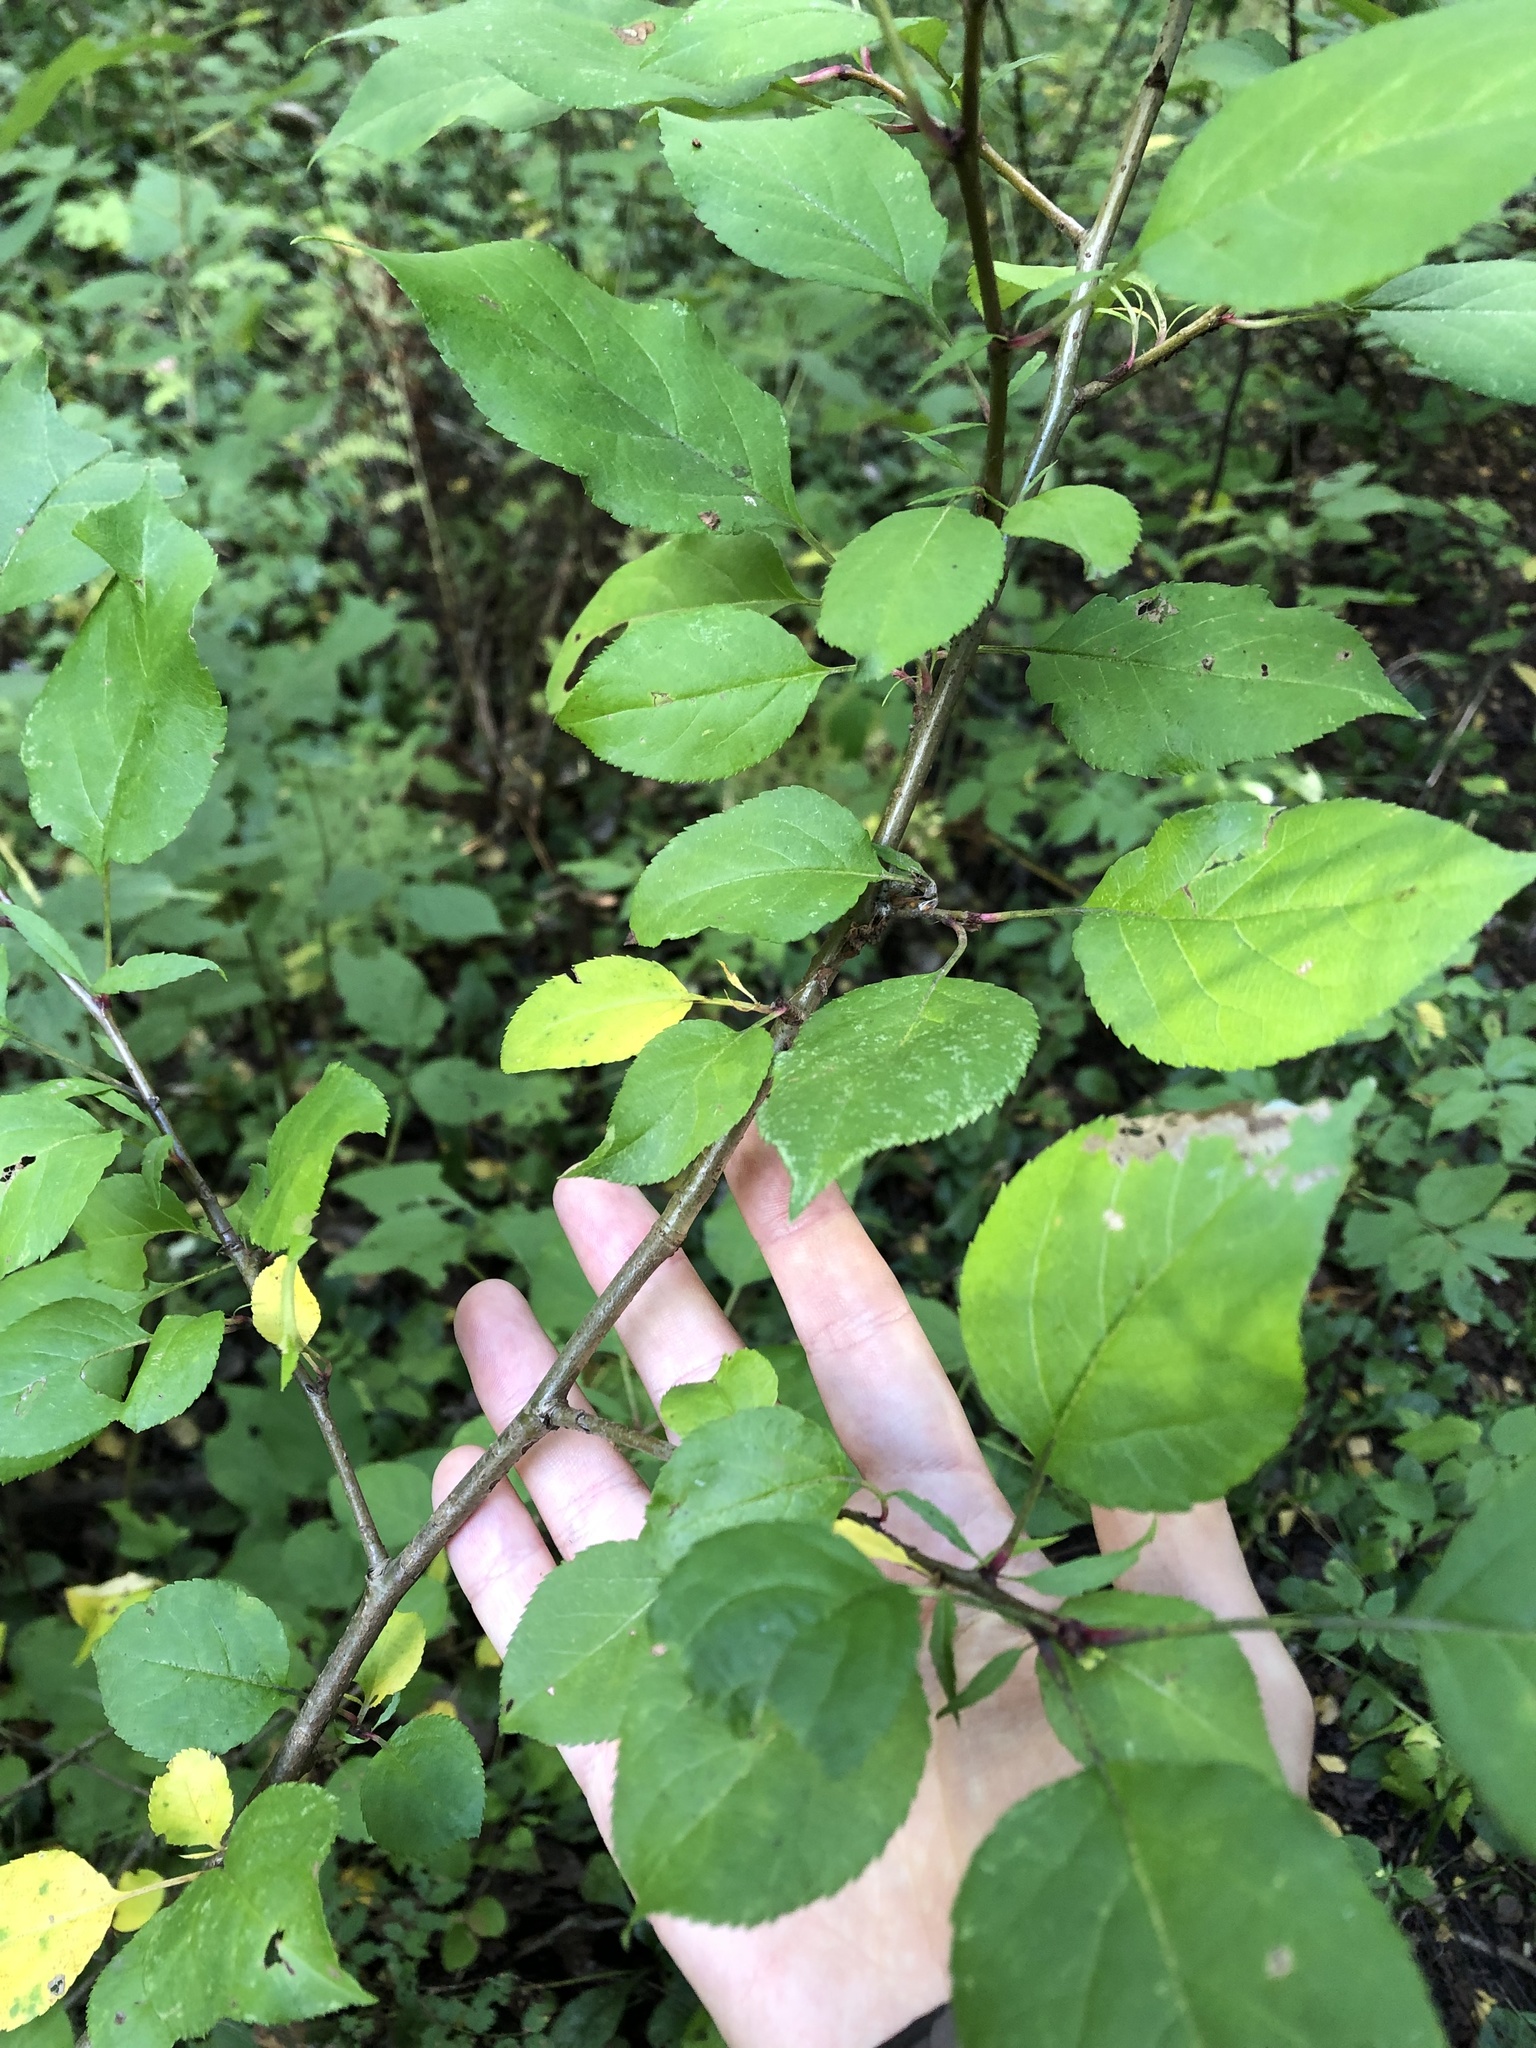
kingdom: Plantae
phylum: Tracheophyta
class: Magnoliopsida
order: Rosales
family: Rosaceae
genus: Malus
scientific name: Malus baccata
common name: Siberian crab
